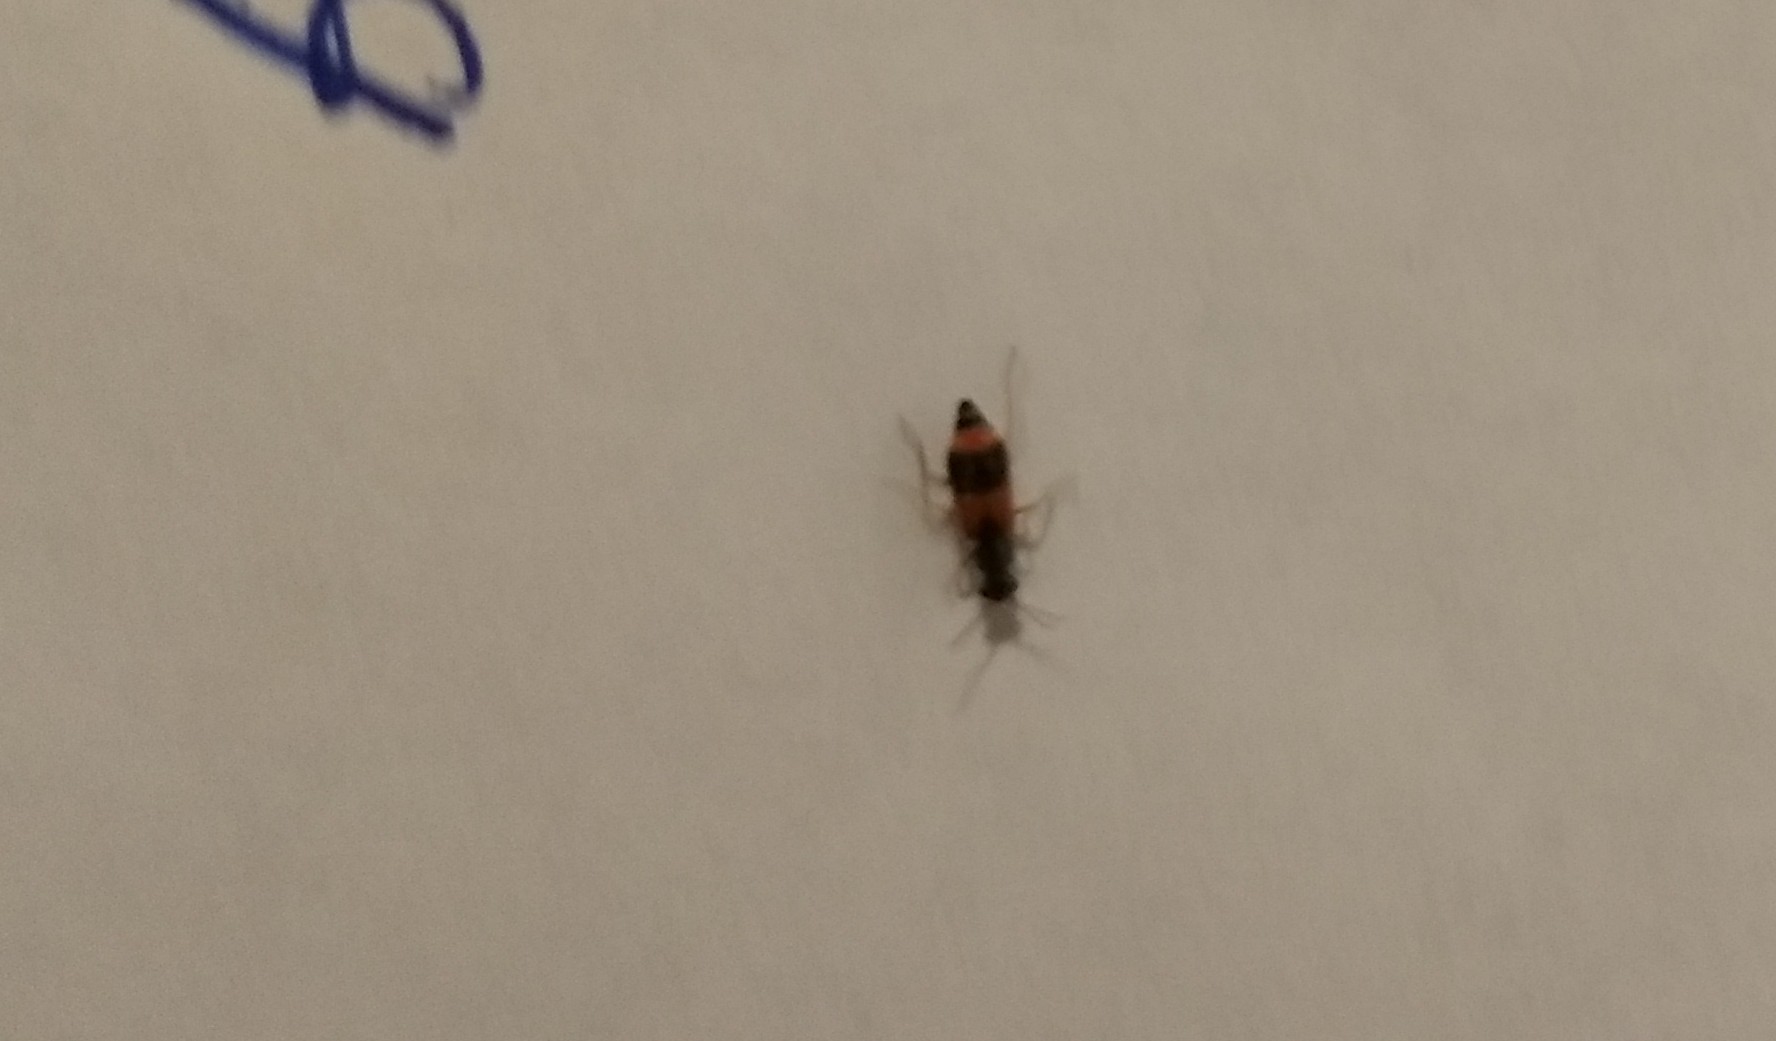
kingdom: Animalia
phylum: Arthropoda
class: Insecta
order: Coleoptera
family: Melyridae
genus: Anthocomus
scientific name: Anthocomus equestris
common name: Black-banded soft-winged flower beetle
